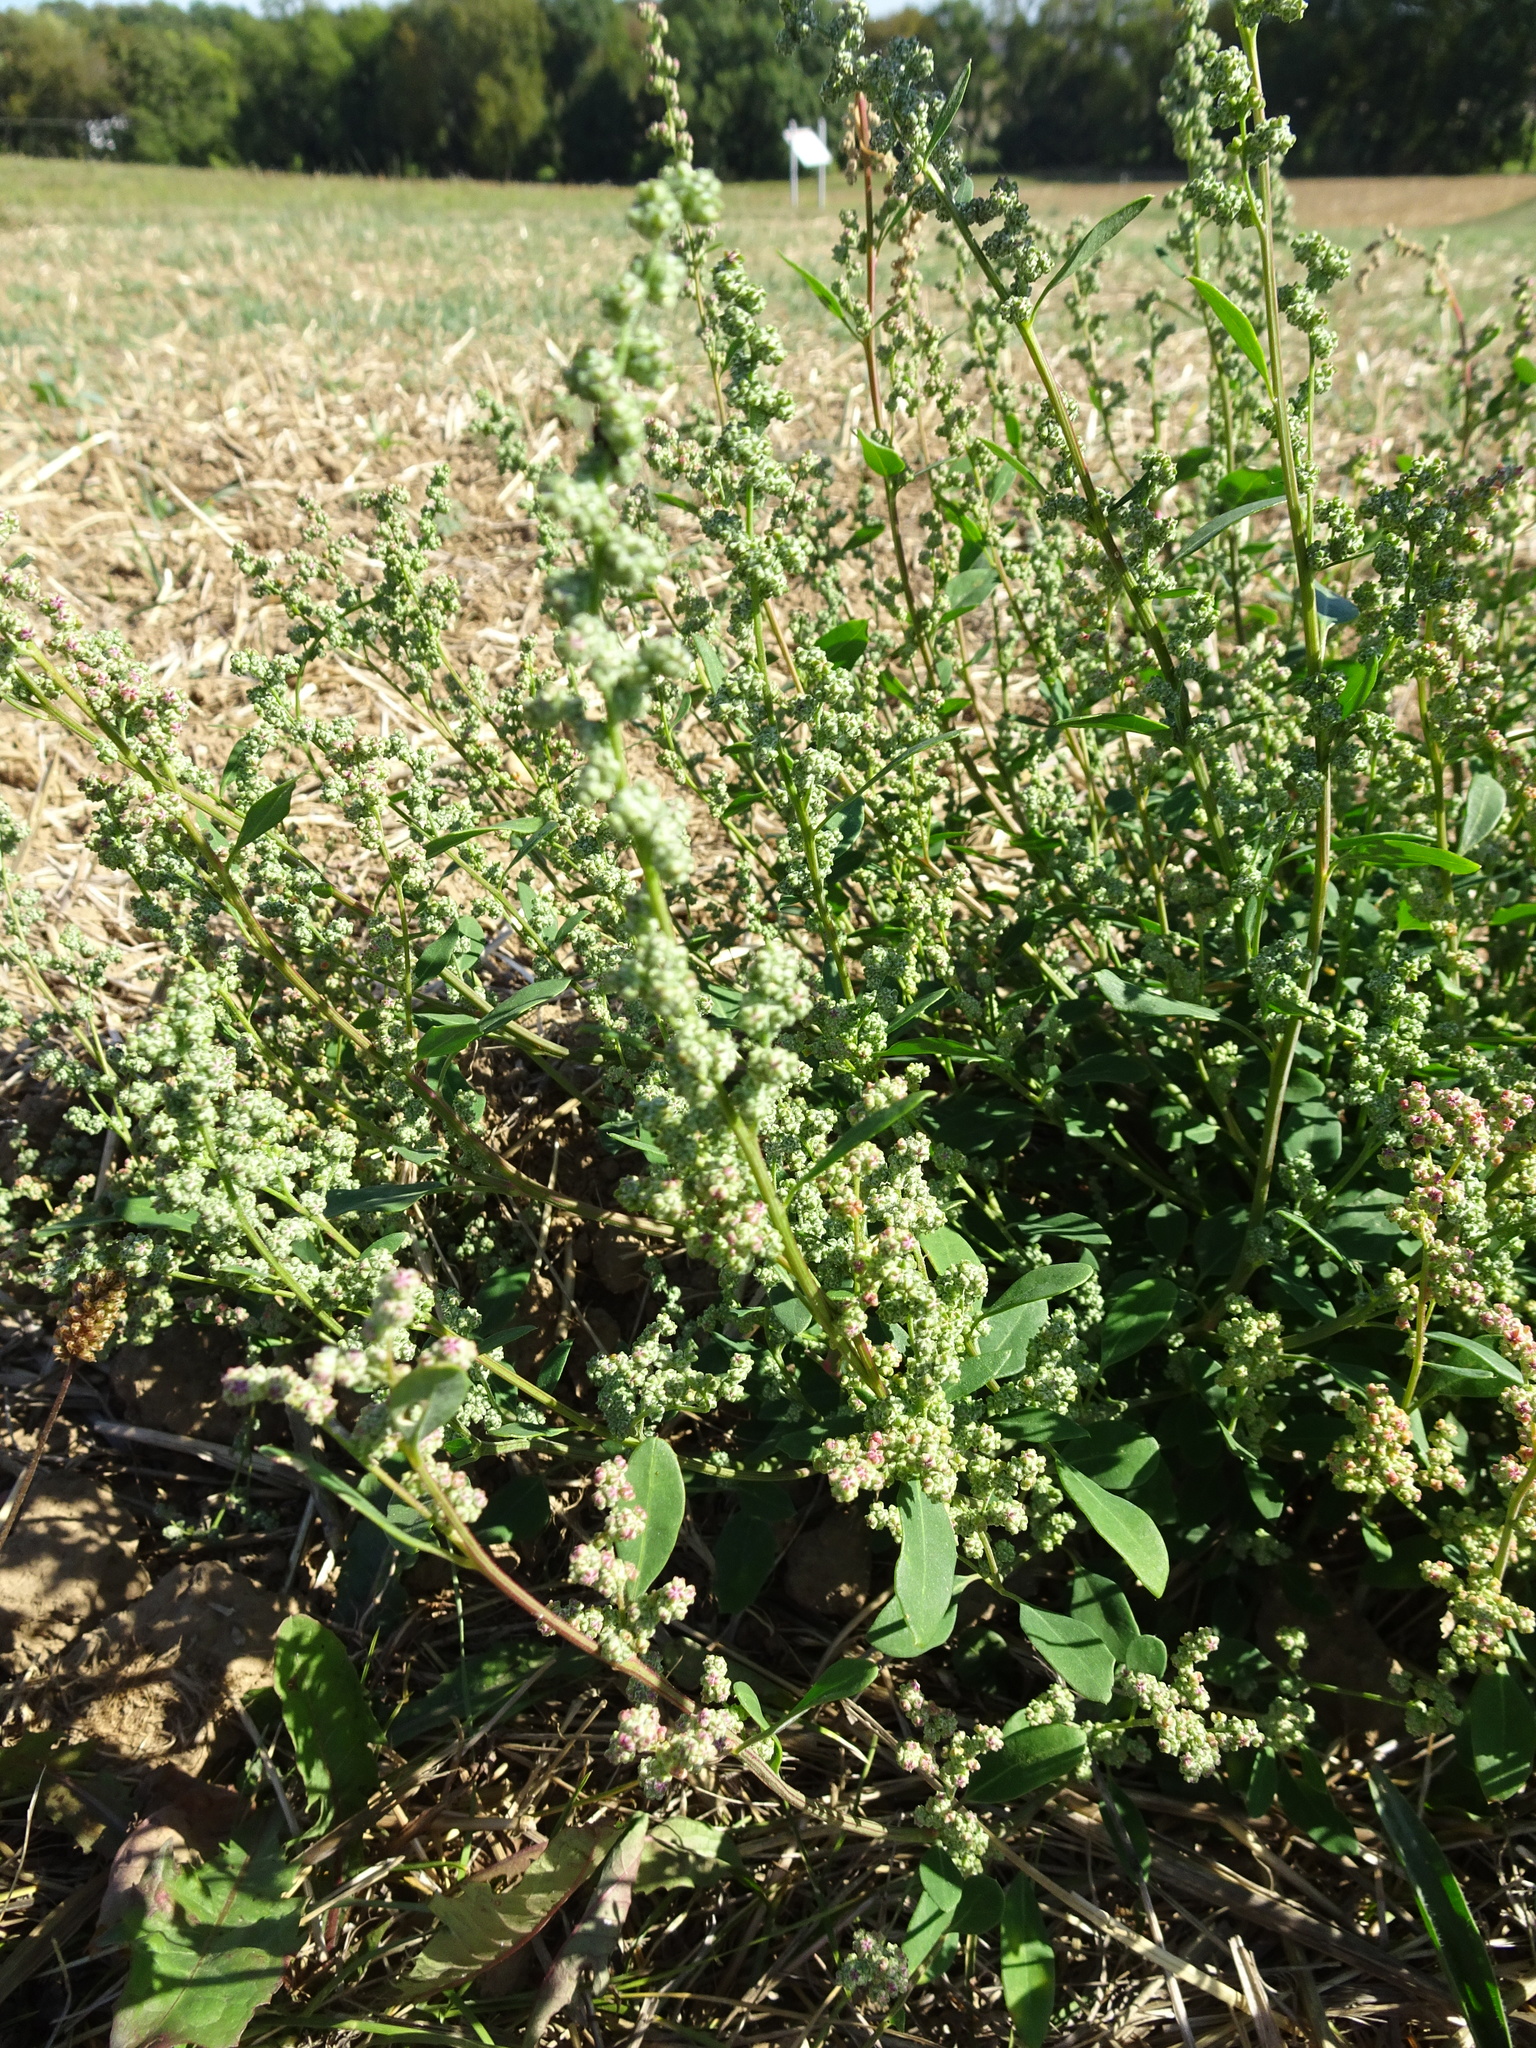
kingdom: Plantae
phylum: Tracheophyta
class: Magnoliopsida
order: Caryophyllales
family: Amaranthaceae
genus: Chenopodium
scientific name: Chenopodium album
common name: Fat-hen
